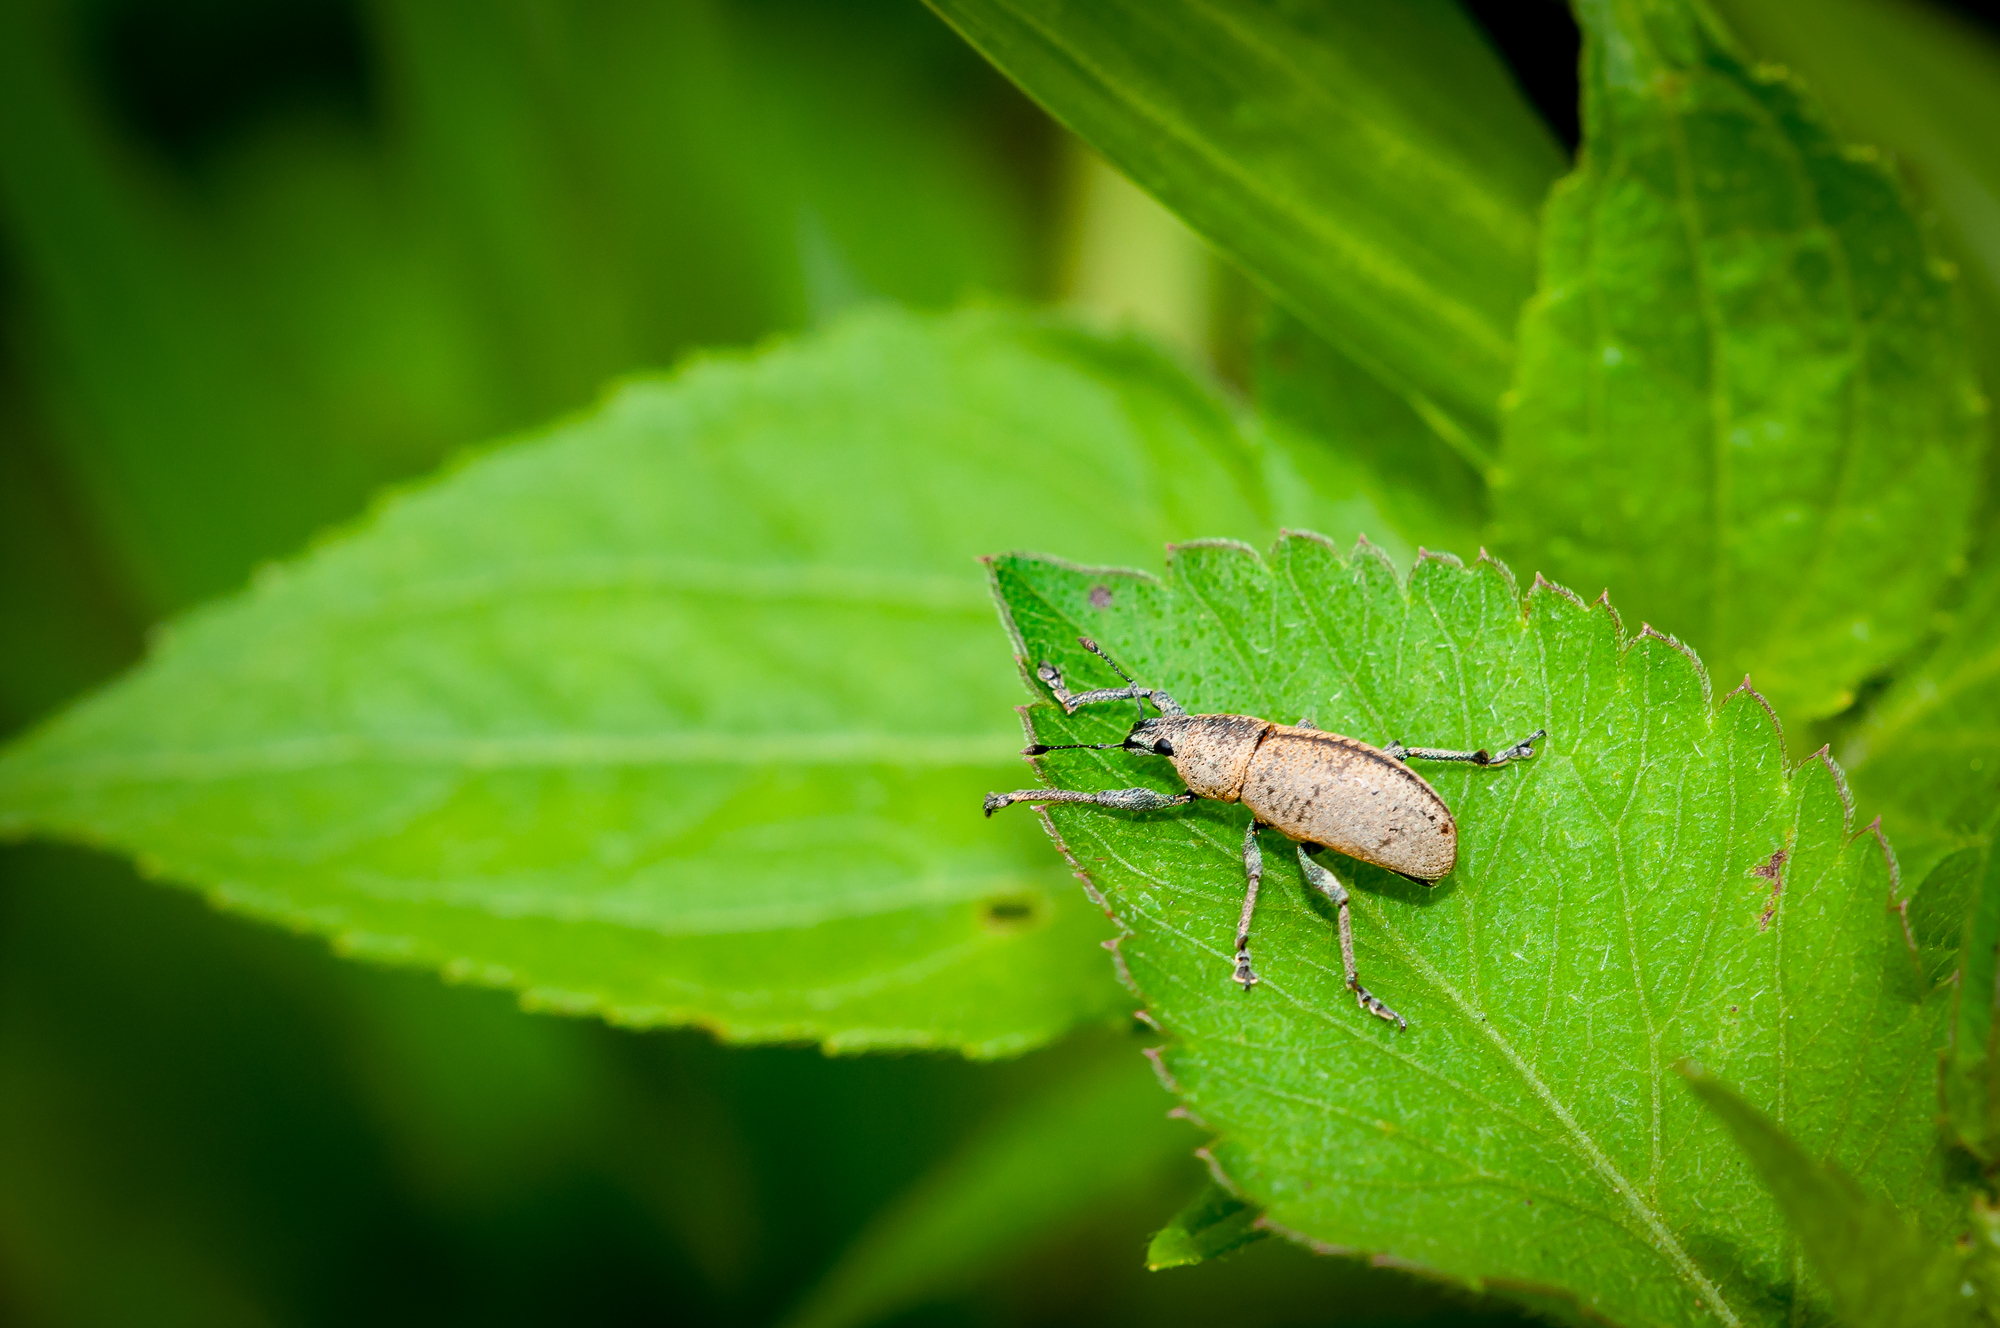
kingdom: Animalia
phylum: Arthropoda
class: Insecta
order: Coleoptera
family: Curculionidae
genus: Cleistolophus
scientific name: Cleistolophus similis
